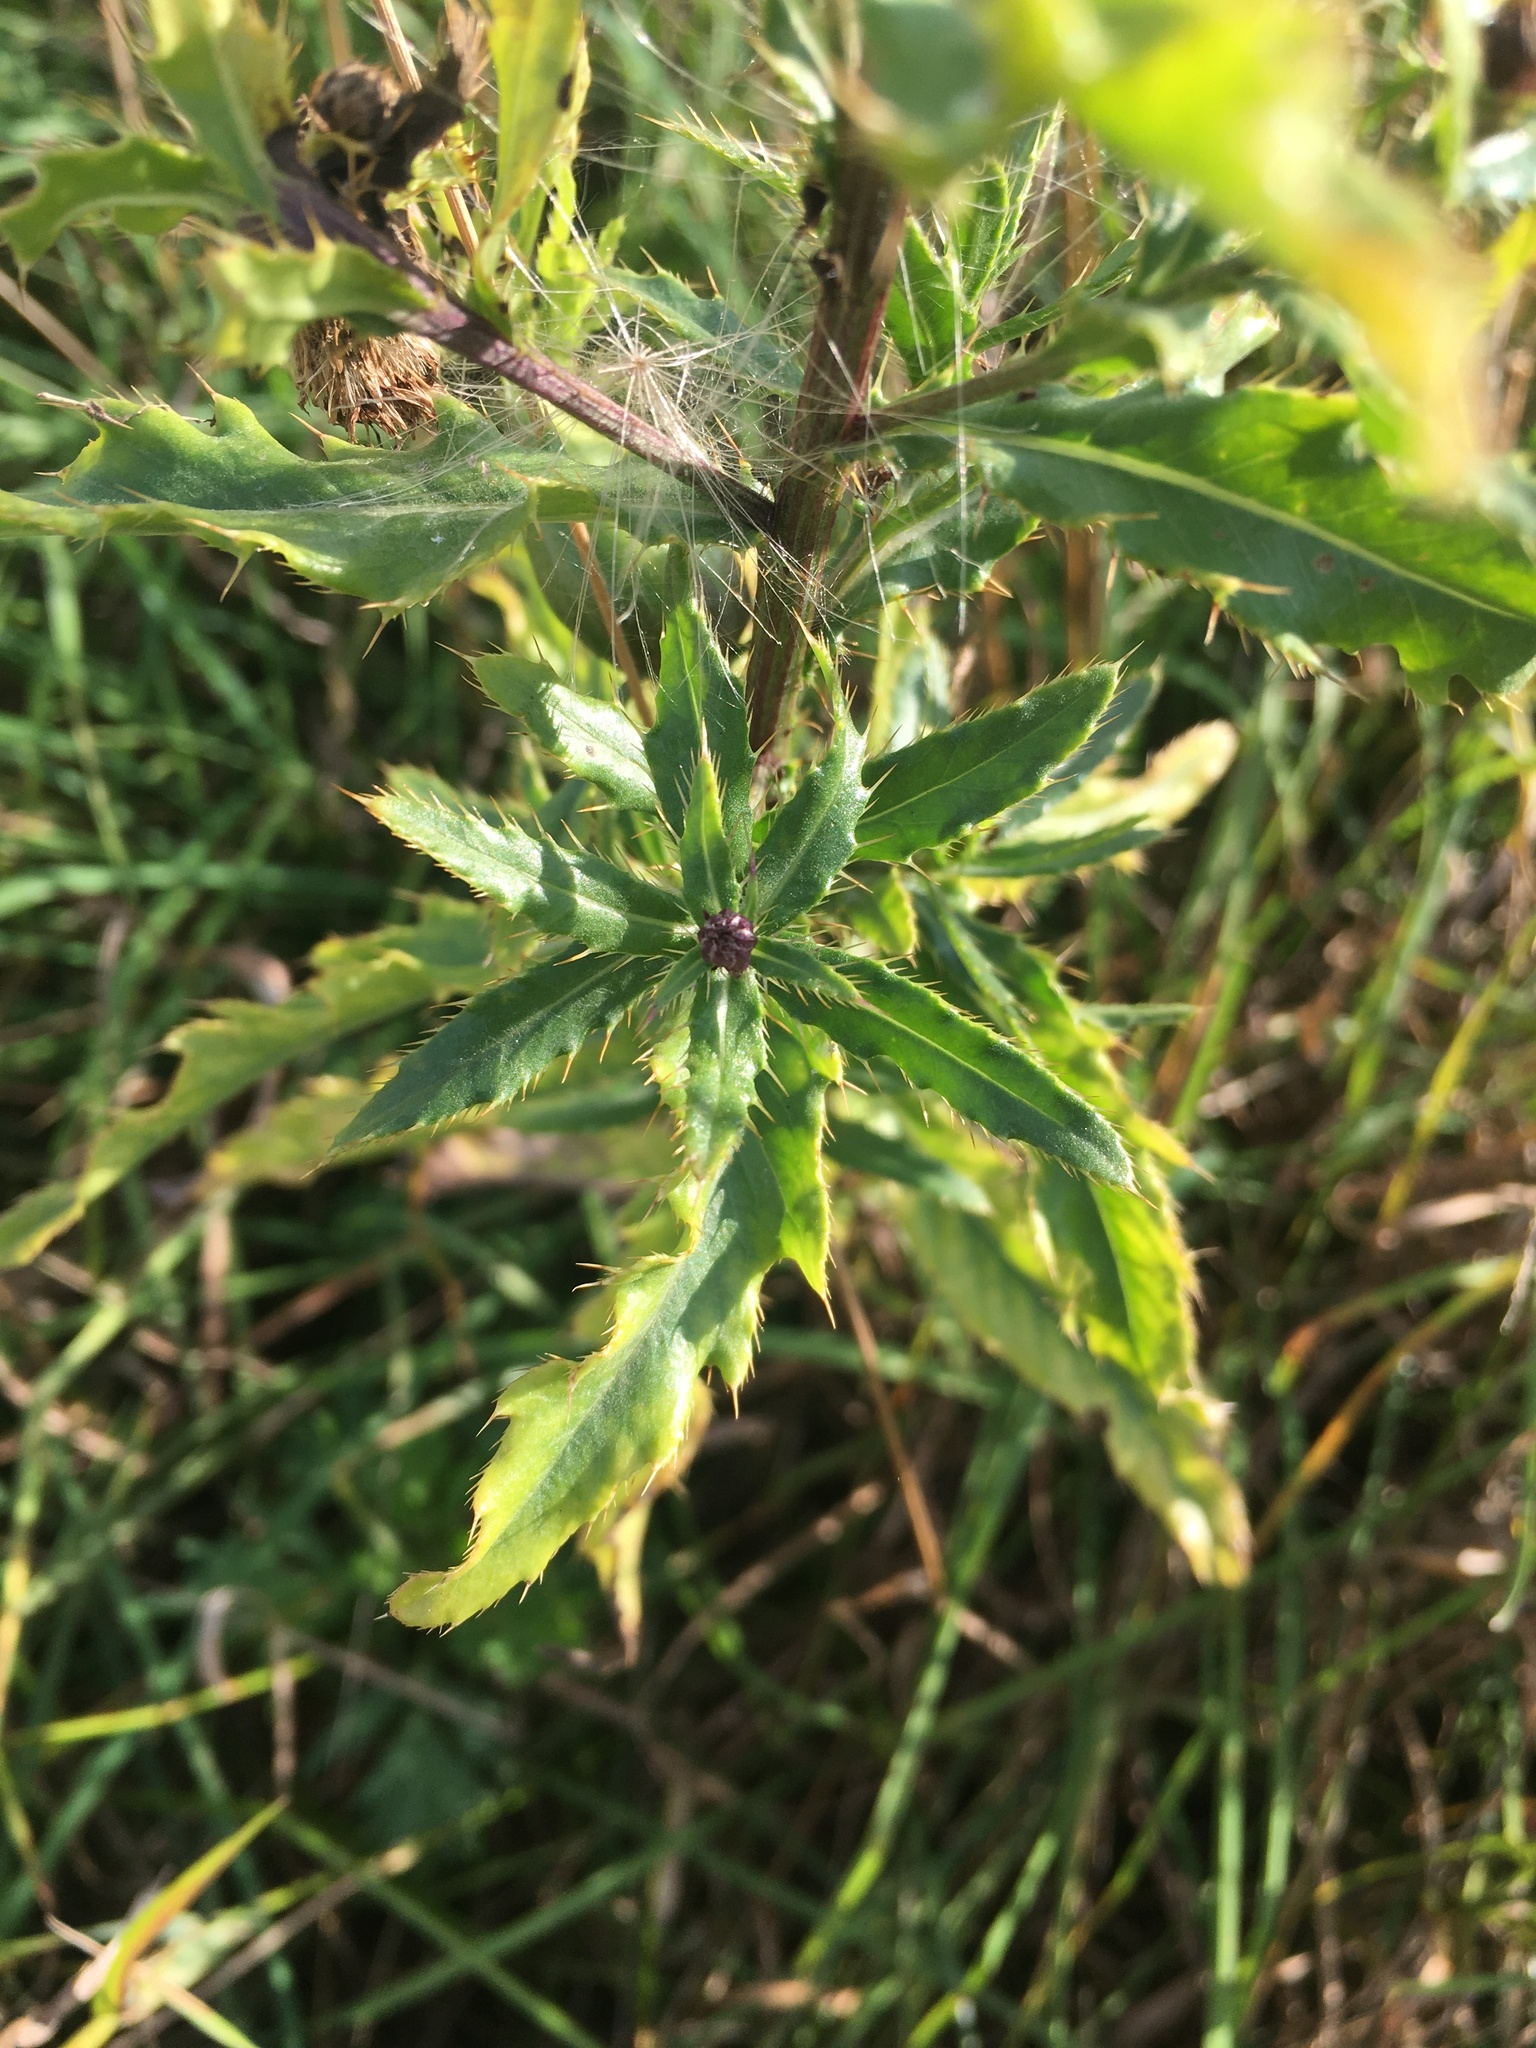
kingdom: Plantae
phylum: Tracheophyta
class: Magnoliopsida
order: Asterales
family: Asteraceae
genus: Cirsium
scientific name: Cirsium arvense
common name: Creeping thistle
